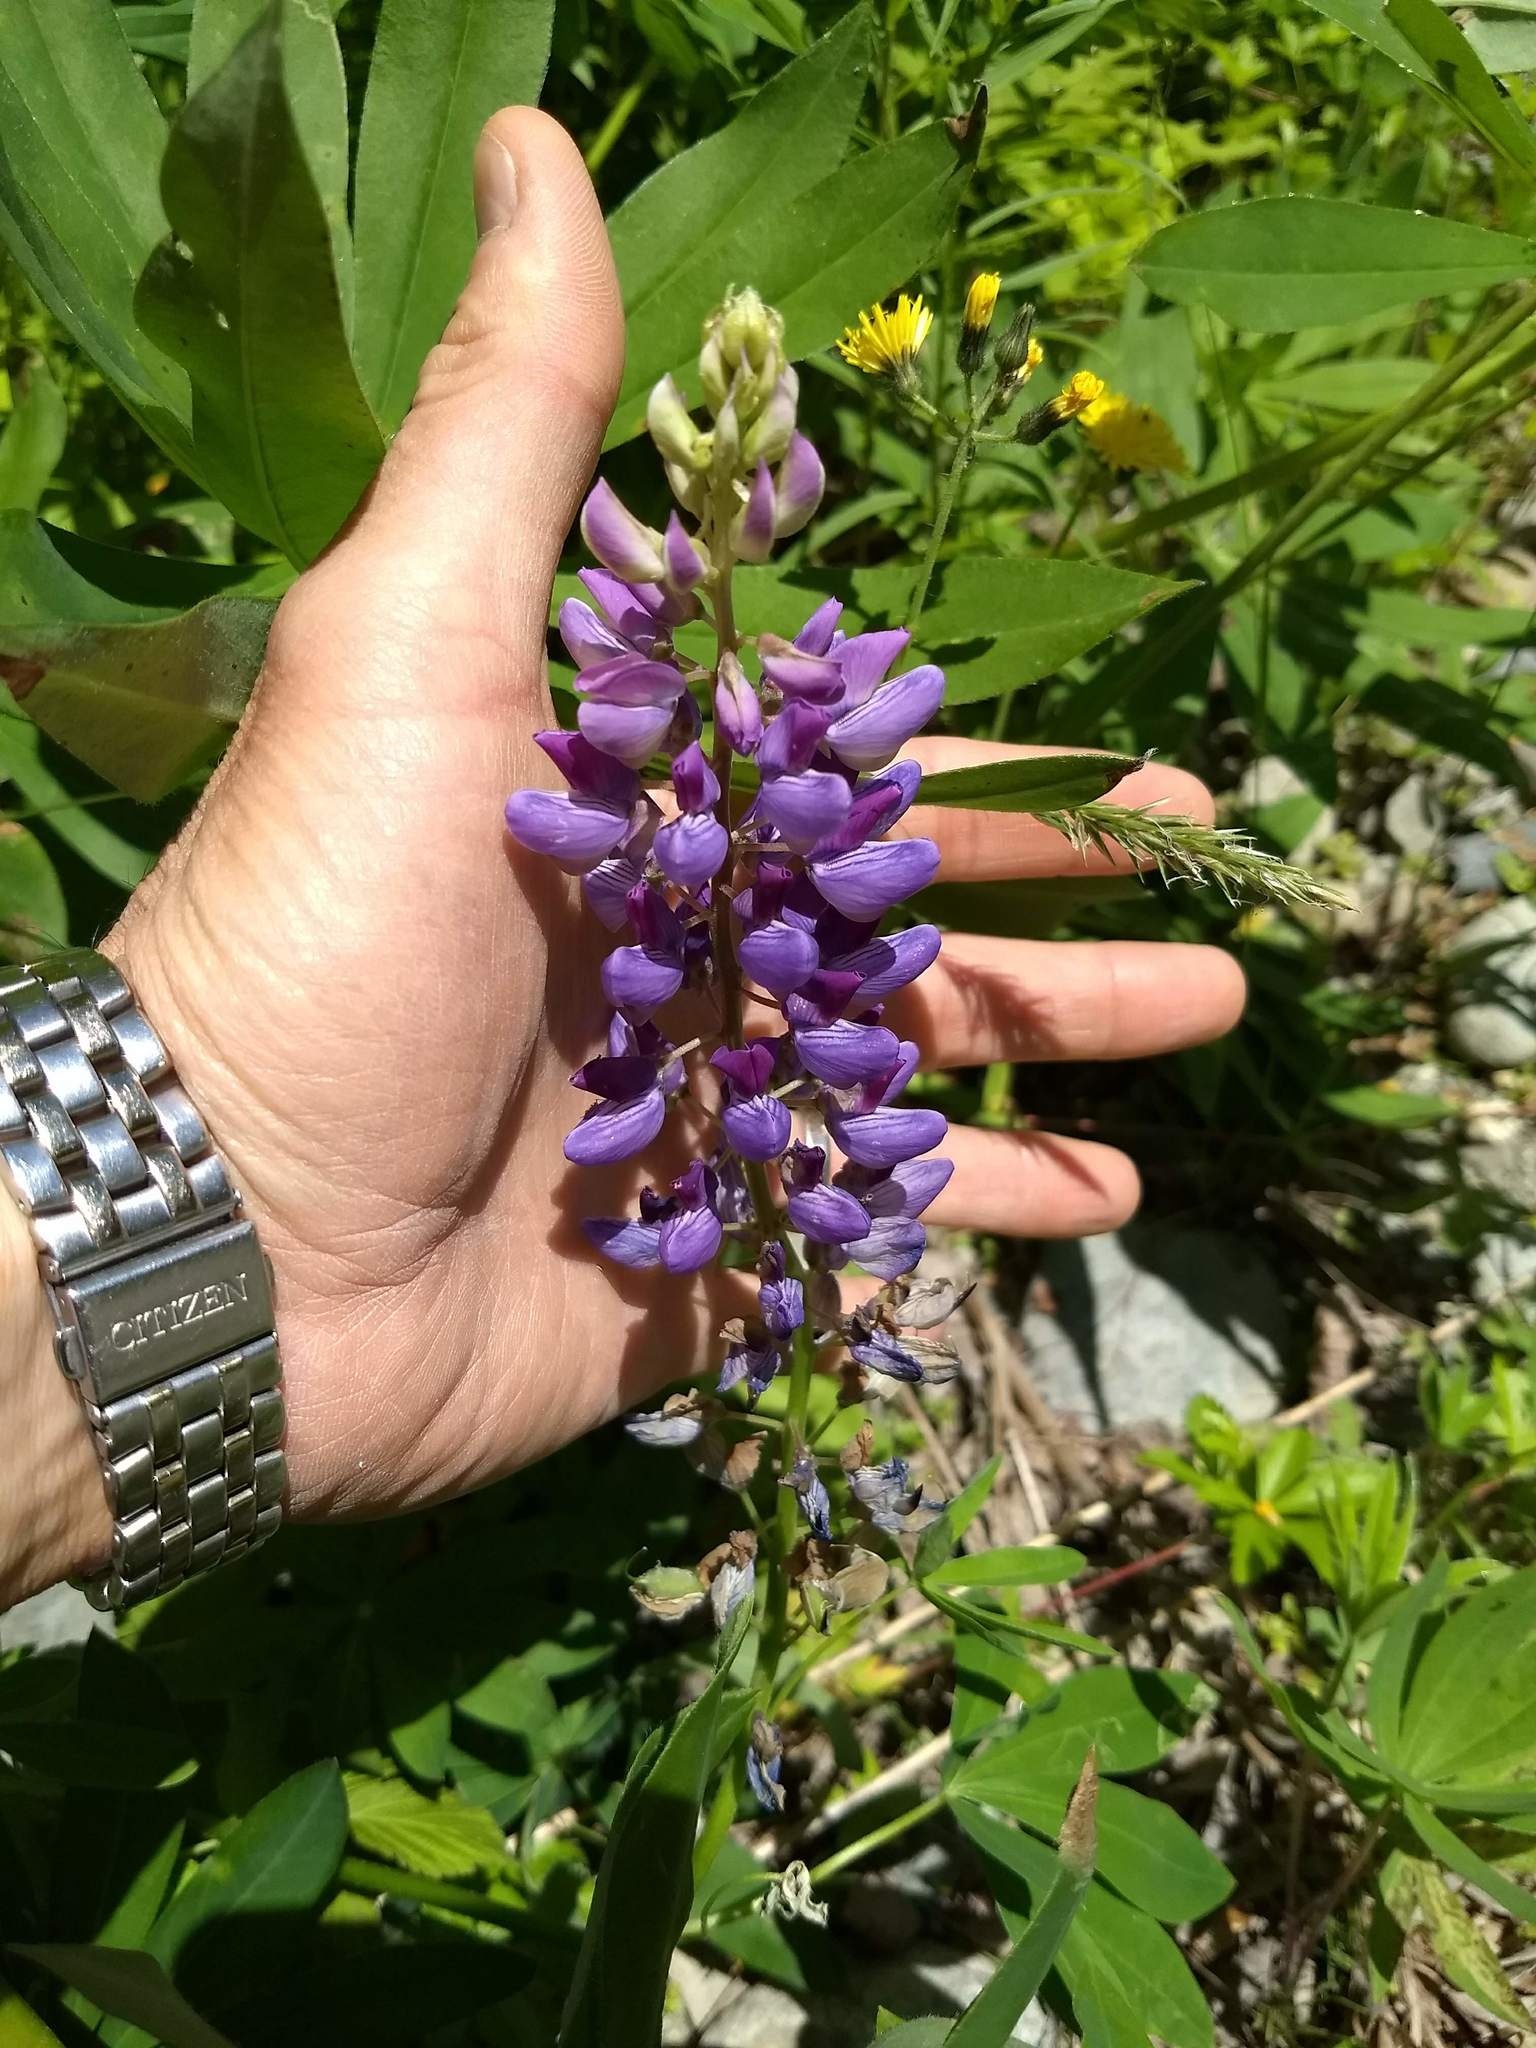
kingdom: Plantae
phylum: Tracheophyta
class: Magnoliopsida
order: Fabales
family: Fabaceae
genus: Lupinus
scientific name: Lupinus polyphyllus
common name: Garden lupin
